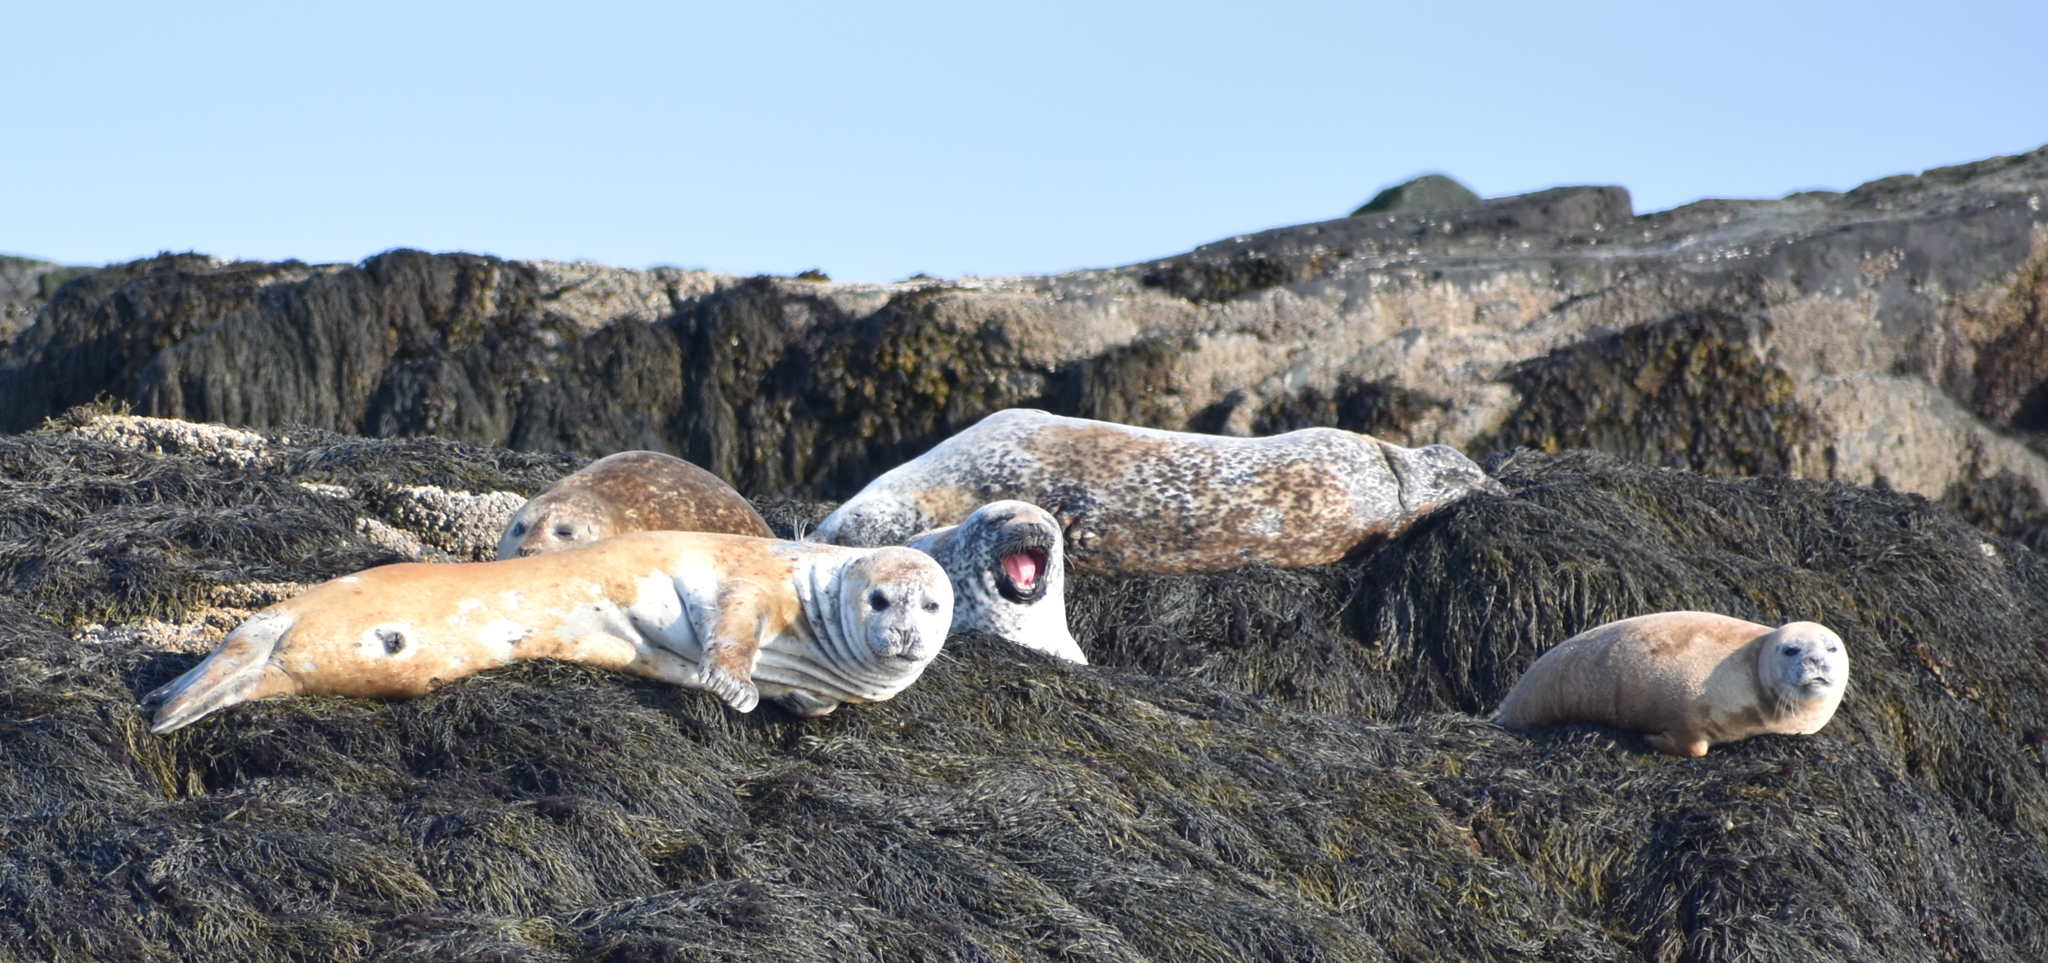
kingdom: Animalia
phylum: Chordata
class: Mammalia
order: Carnivora
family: Phocidae
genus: Phoca
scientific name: Phoca vitulina
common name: Harbor seal
